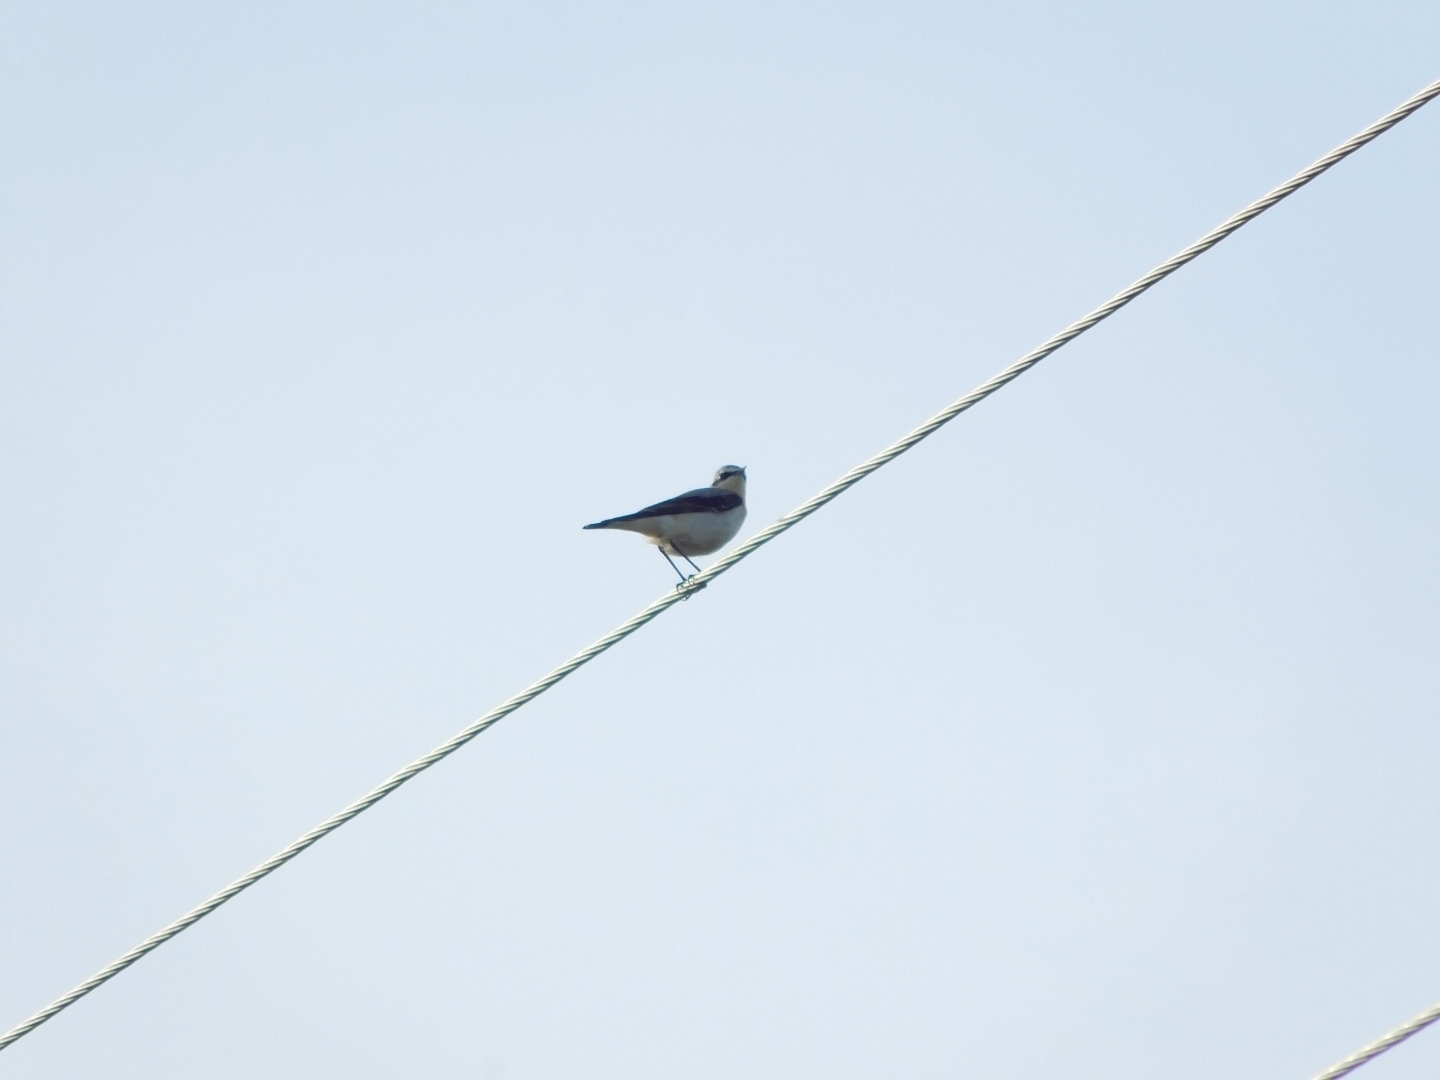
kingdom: Animalia
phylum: Chordata
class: Aves
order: Passeriformes
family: Muscicapidae
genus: Oenanthe
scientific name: Oenanthe oenanthe
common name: Northern wheatear
